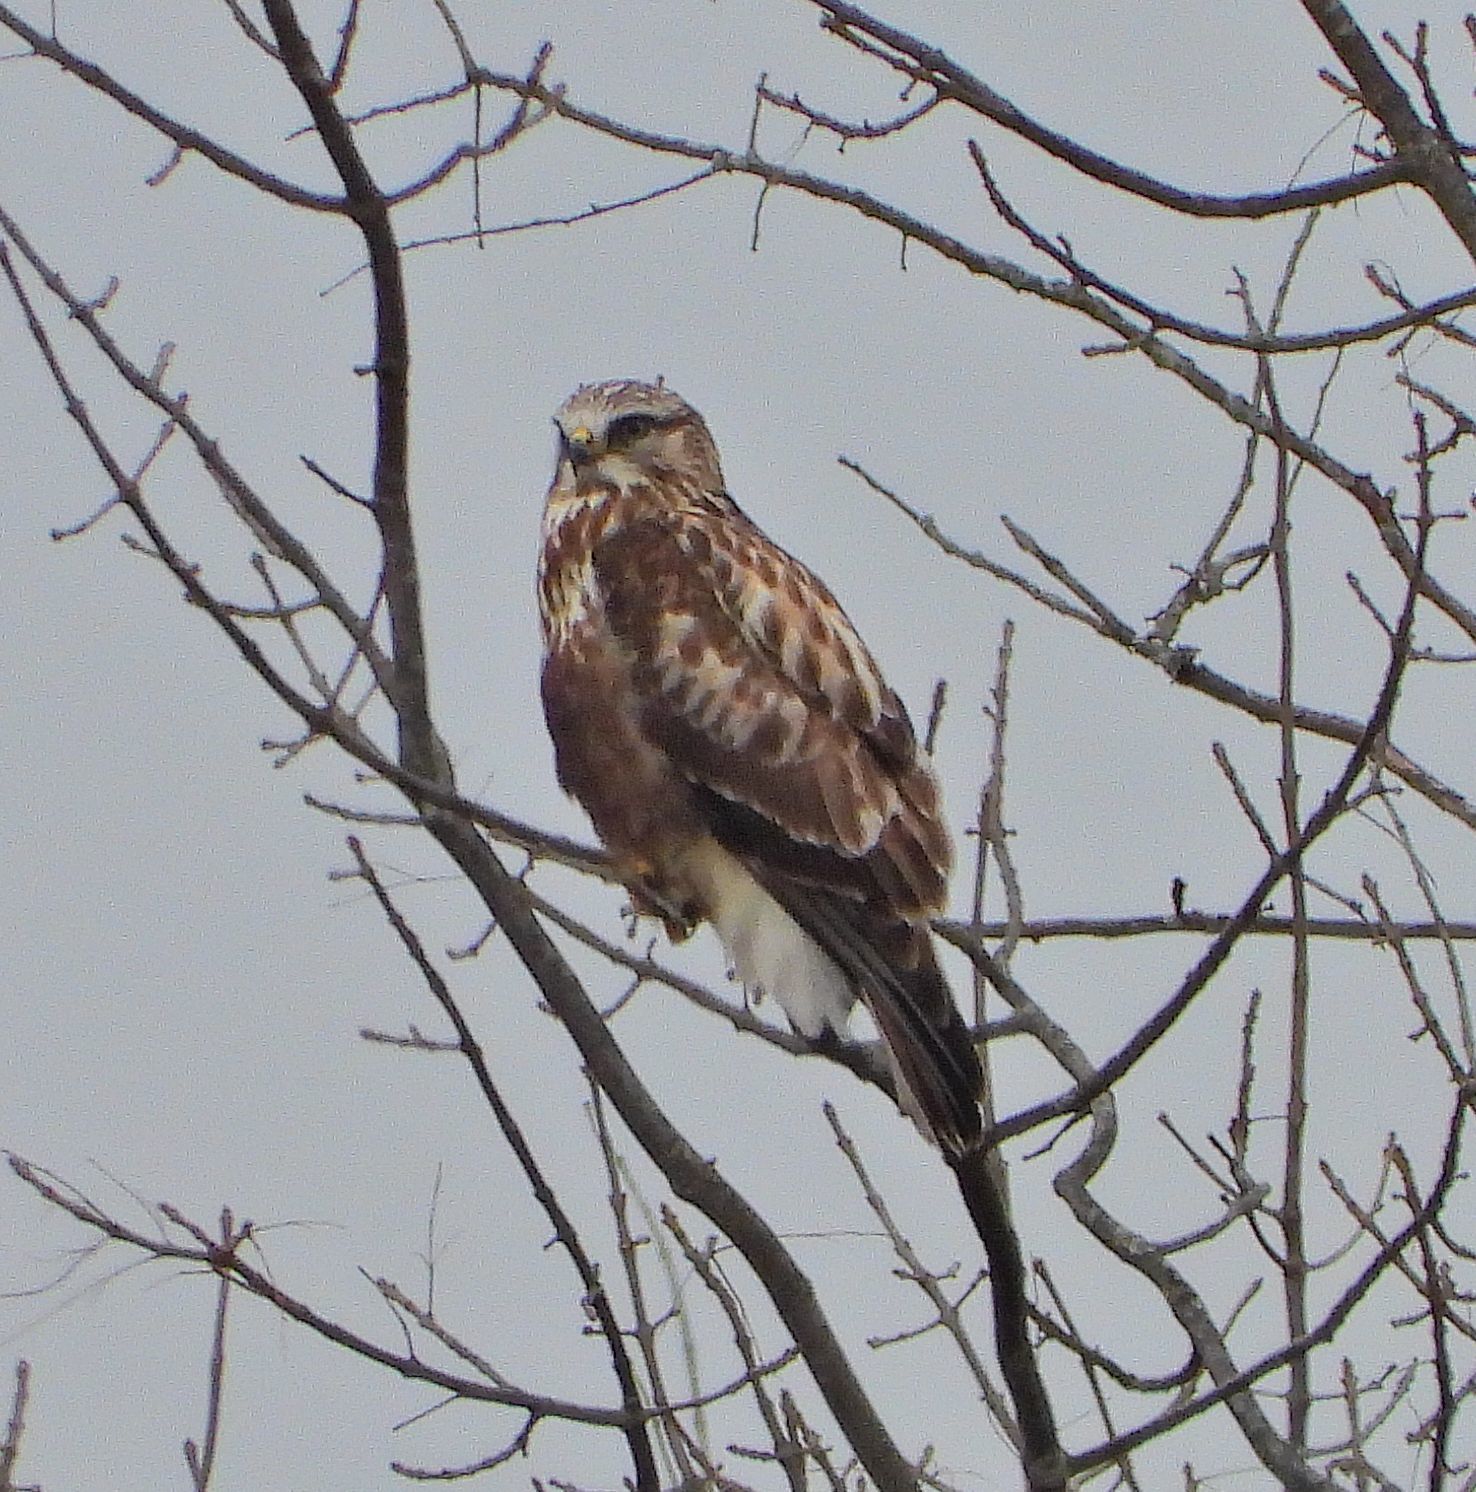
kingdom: Animalia
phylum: Chordata
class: Aves
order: Accipitriformes
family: Accipitridae
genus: Buteo
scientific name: Buteo lagopus
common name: Rough-legged buzzard
